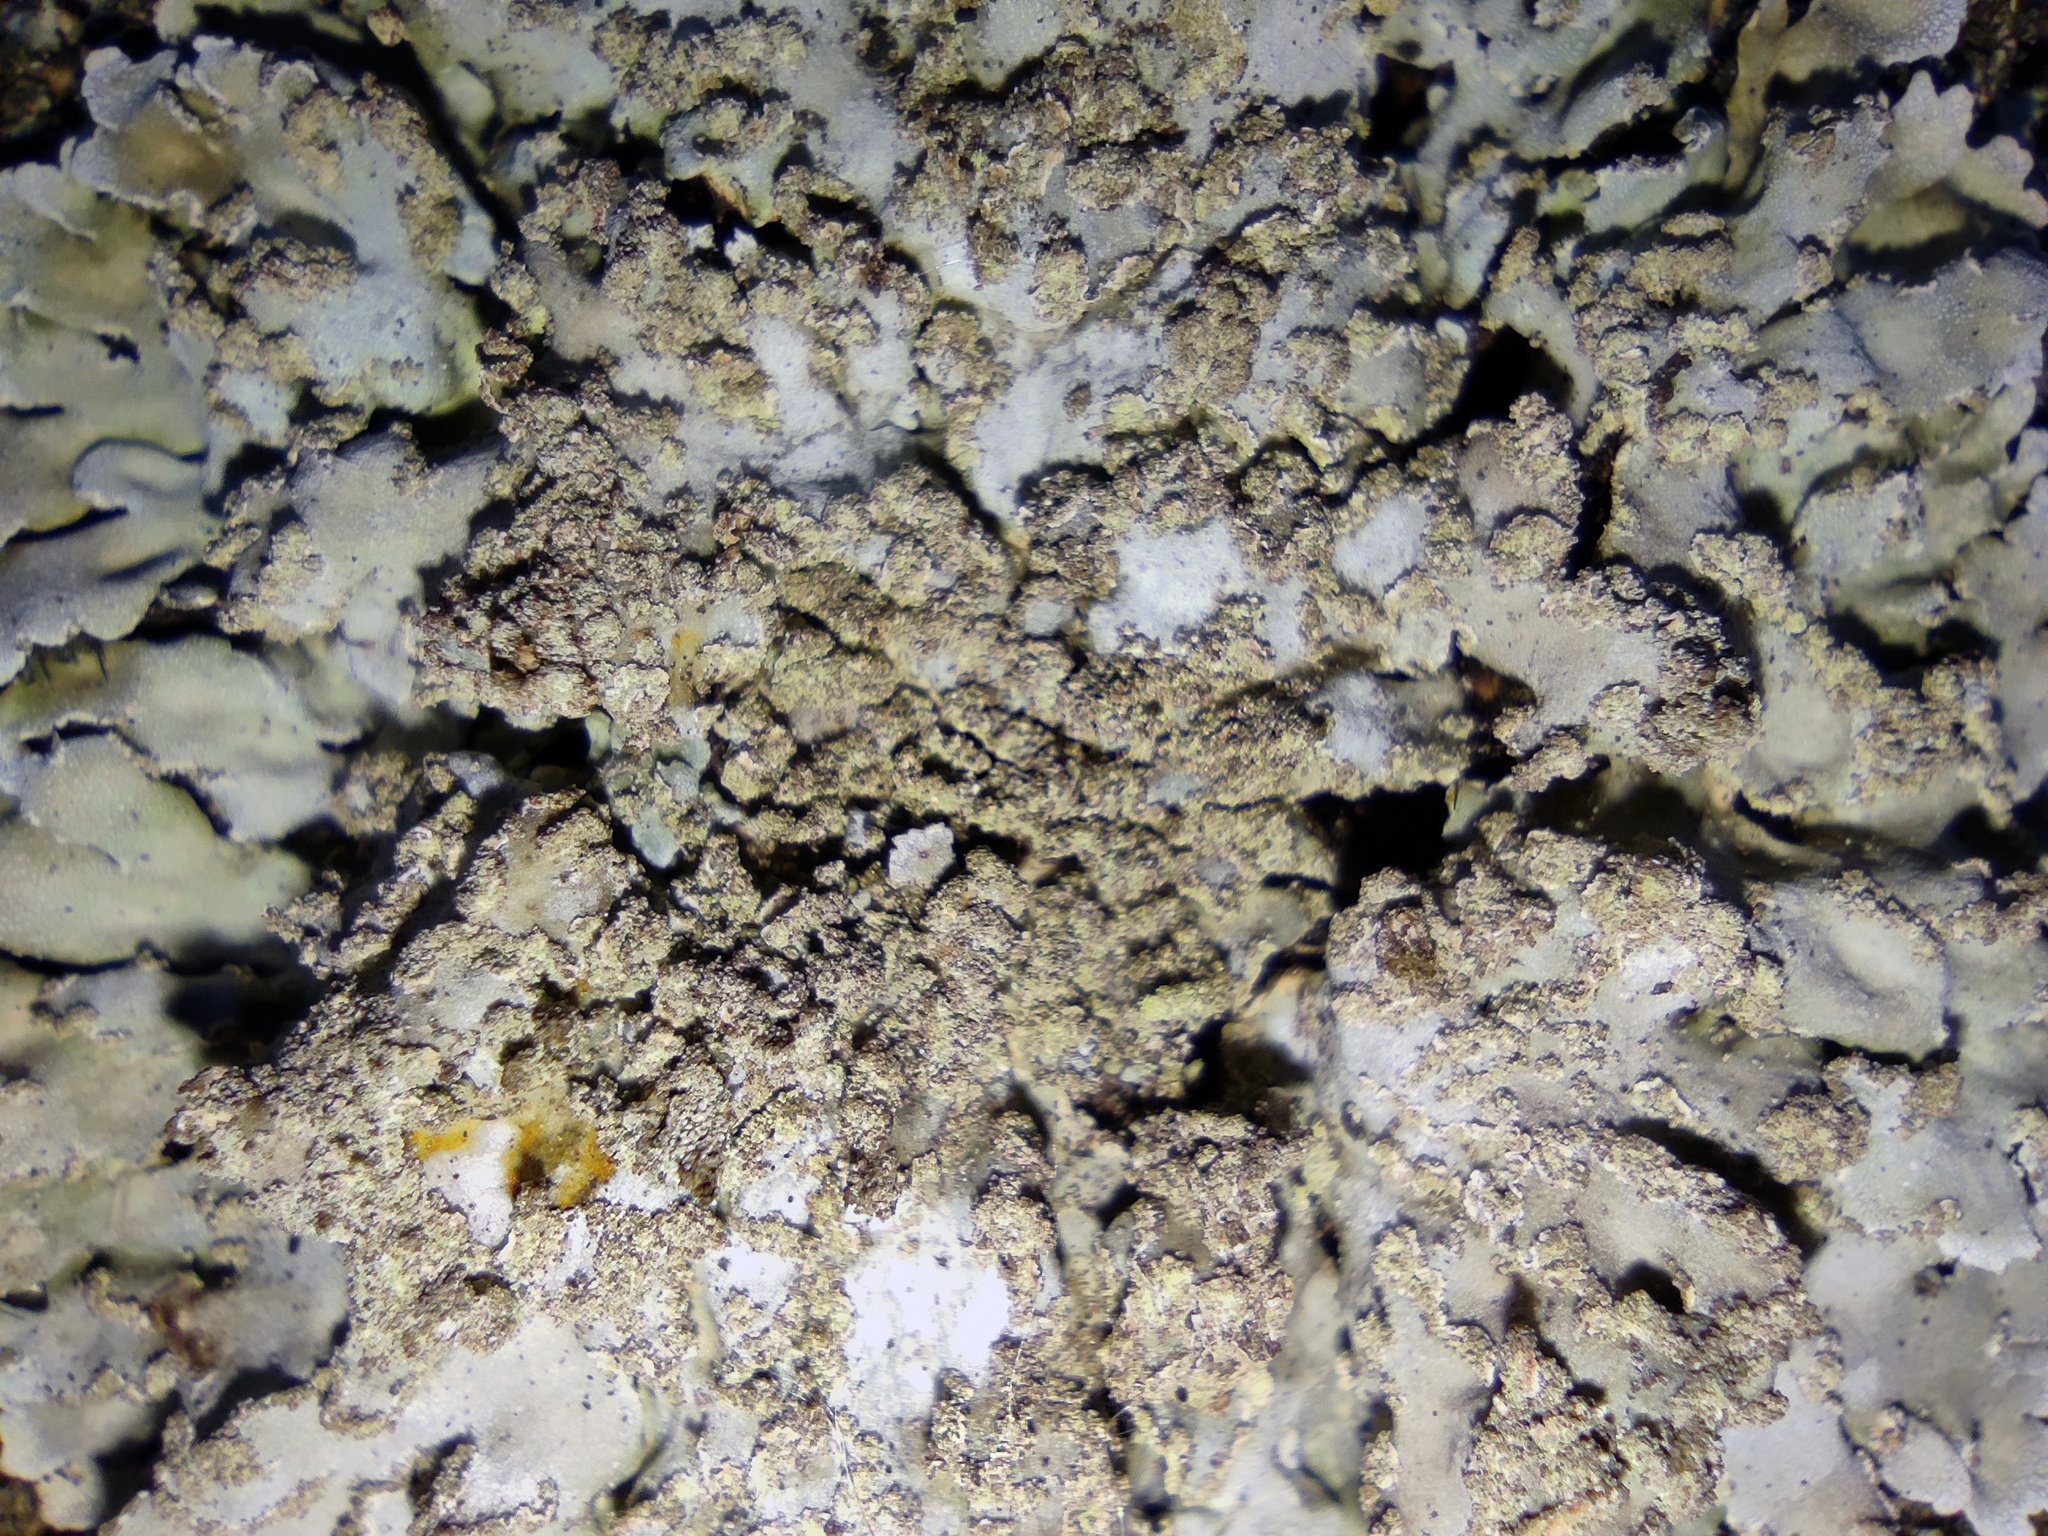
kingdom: Fungi
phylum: Ascomycota
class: Lecanoromycetes
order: Caliciales
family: Physciaceae
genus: Physconia
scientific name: Physconia enteroxantha
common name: Yellow-edged frost lichen
